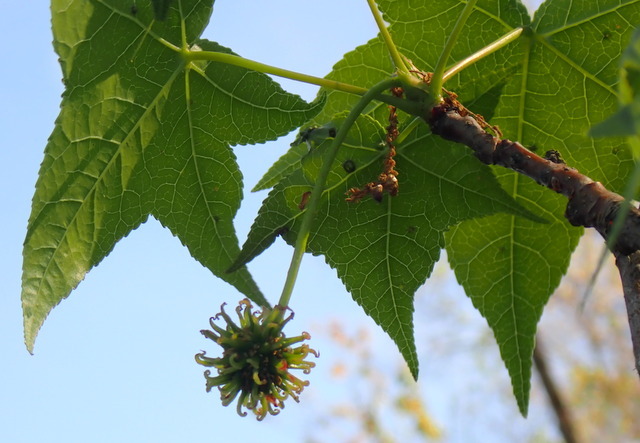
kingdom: Plantae
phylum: Tracheophyta
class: Magnoliopsida
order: Saxifragales
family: Altingiaceae
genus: Liquidambar
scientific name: Liquidambar styraciflua
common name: Sweet gum
